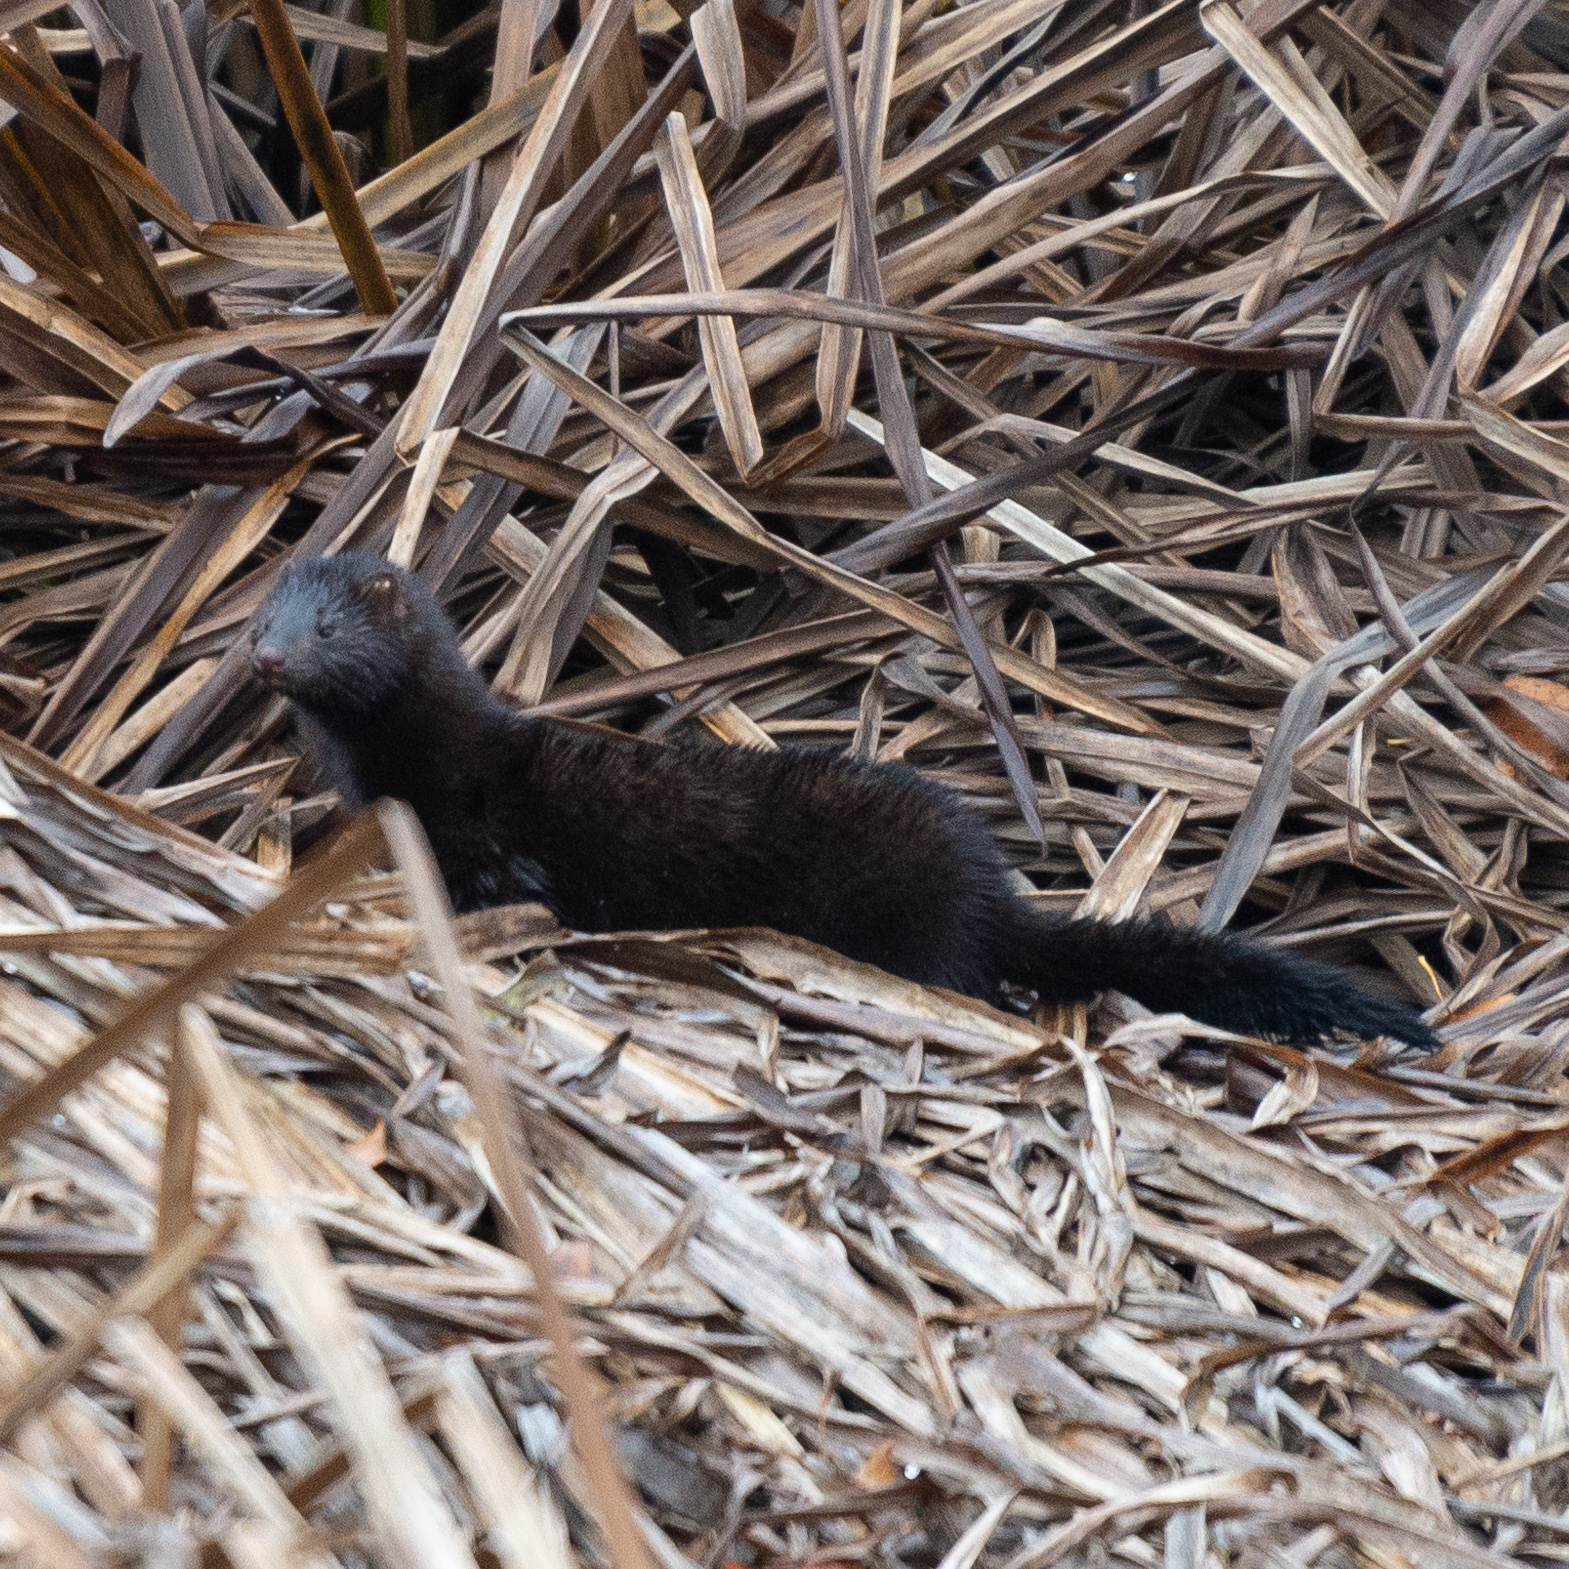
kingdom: Animalia
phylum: Chordata
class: Mammalia
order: Carnivora
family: Mustelidae
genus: Mustela
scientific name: Mustela
